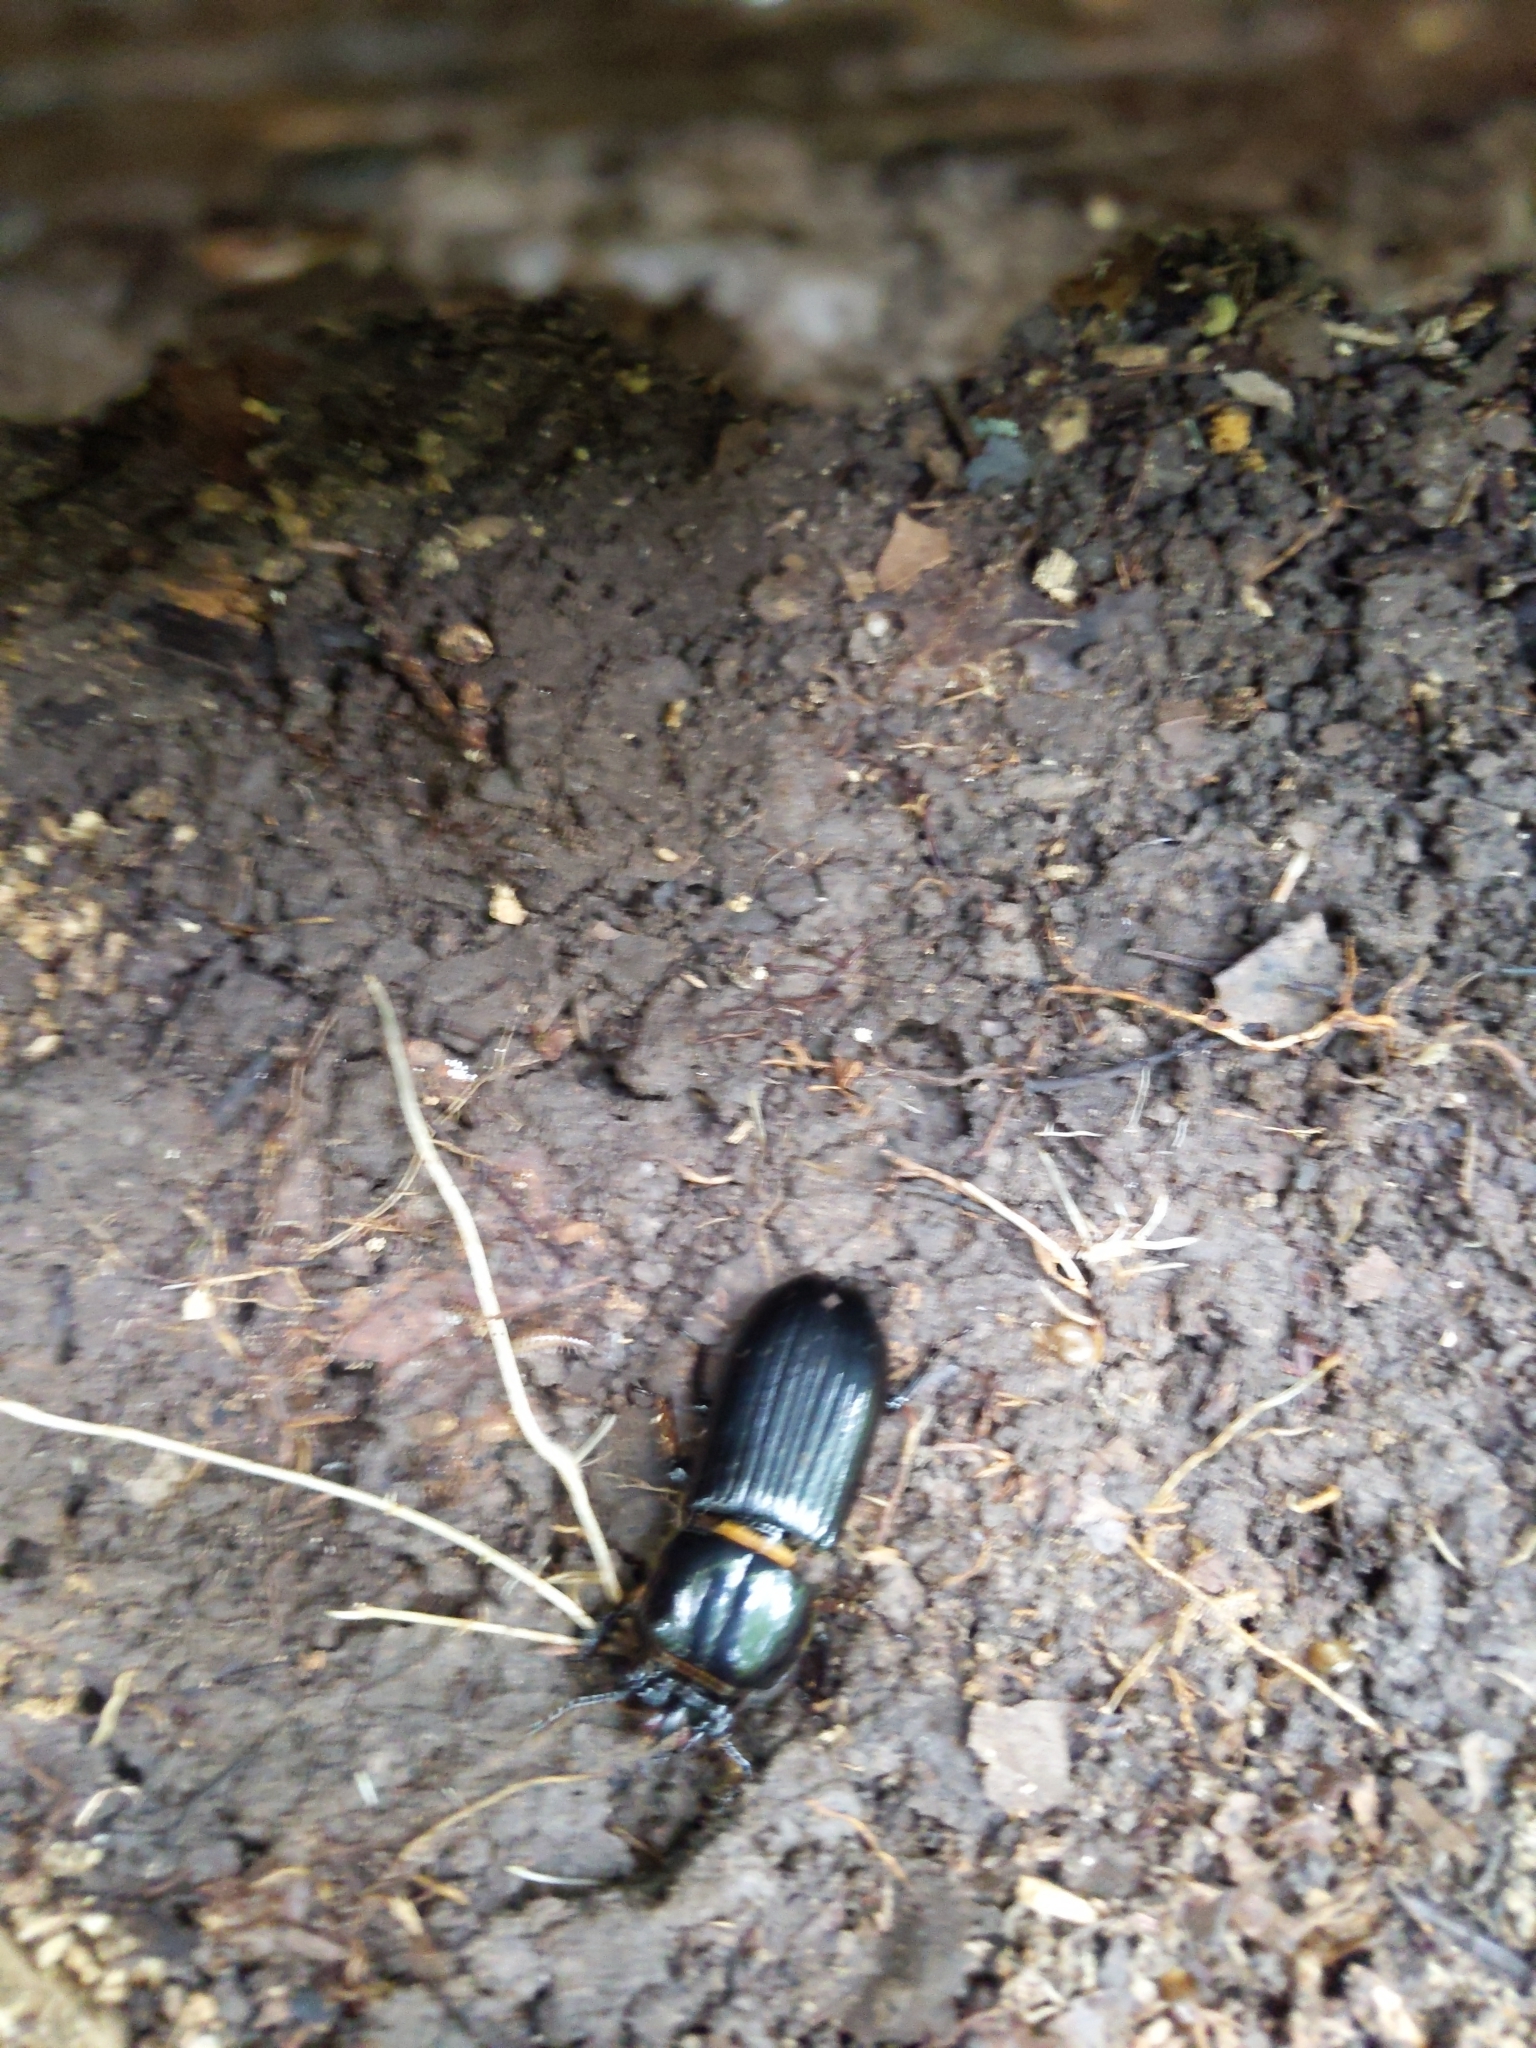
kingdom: Animalia
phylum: Arthropoda
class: Insecta
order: Coleoptera
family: Passalidae
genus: Odontotaenius
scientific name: Odontotaenius disjunctus
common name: Patent leather beetle
